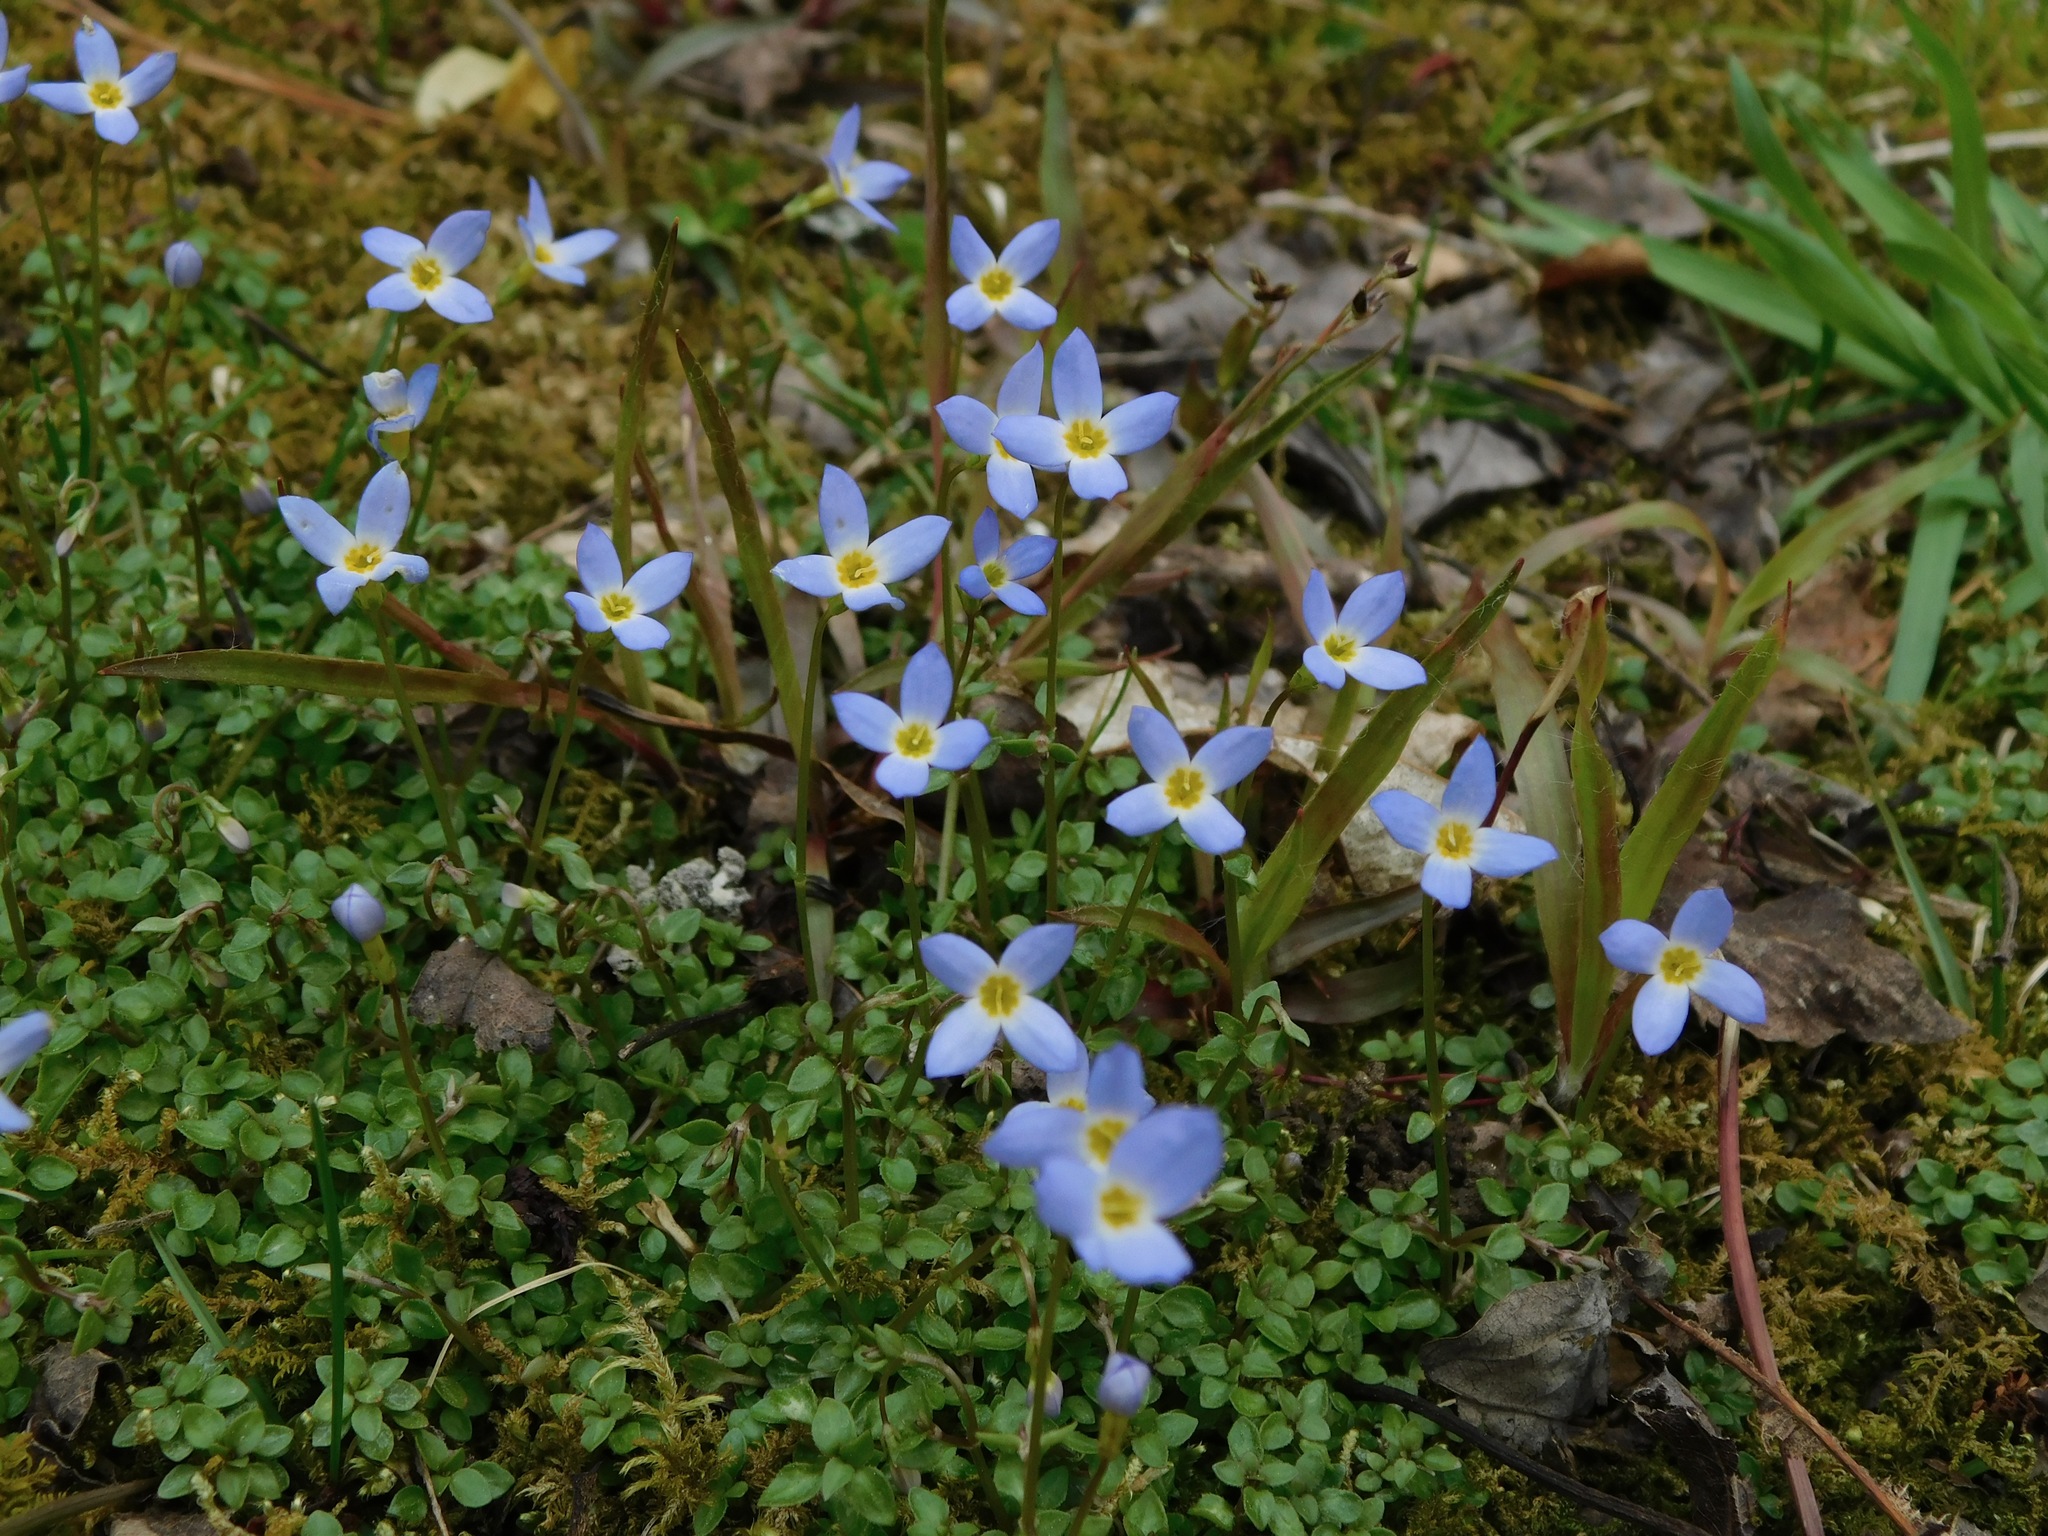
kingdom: Plantae
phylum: Tracheophyta
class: Magnoliopsida
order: Gentianales
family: Rubiaceae
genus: Houstonia
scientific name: Houstonia caerulea
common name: Bluets
